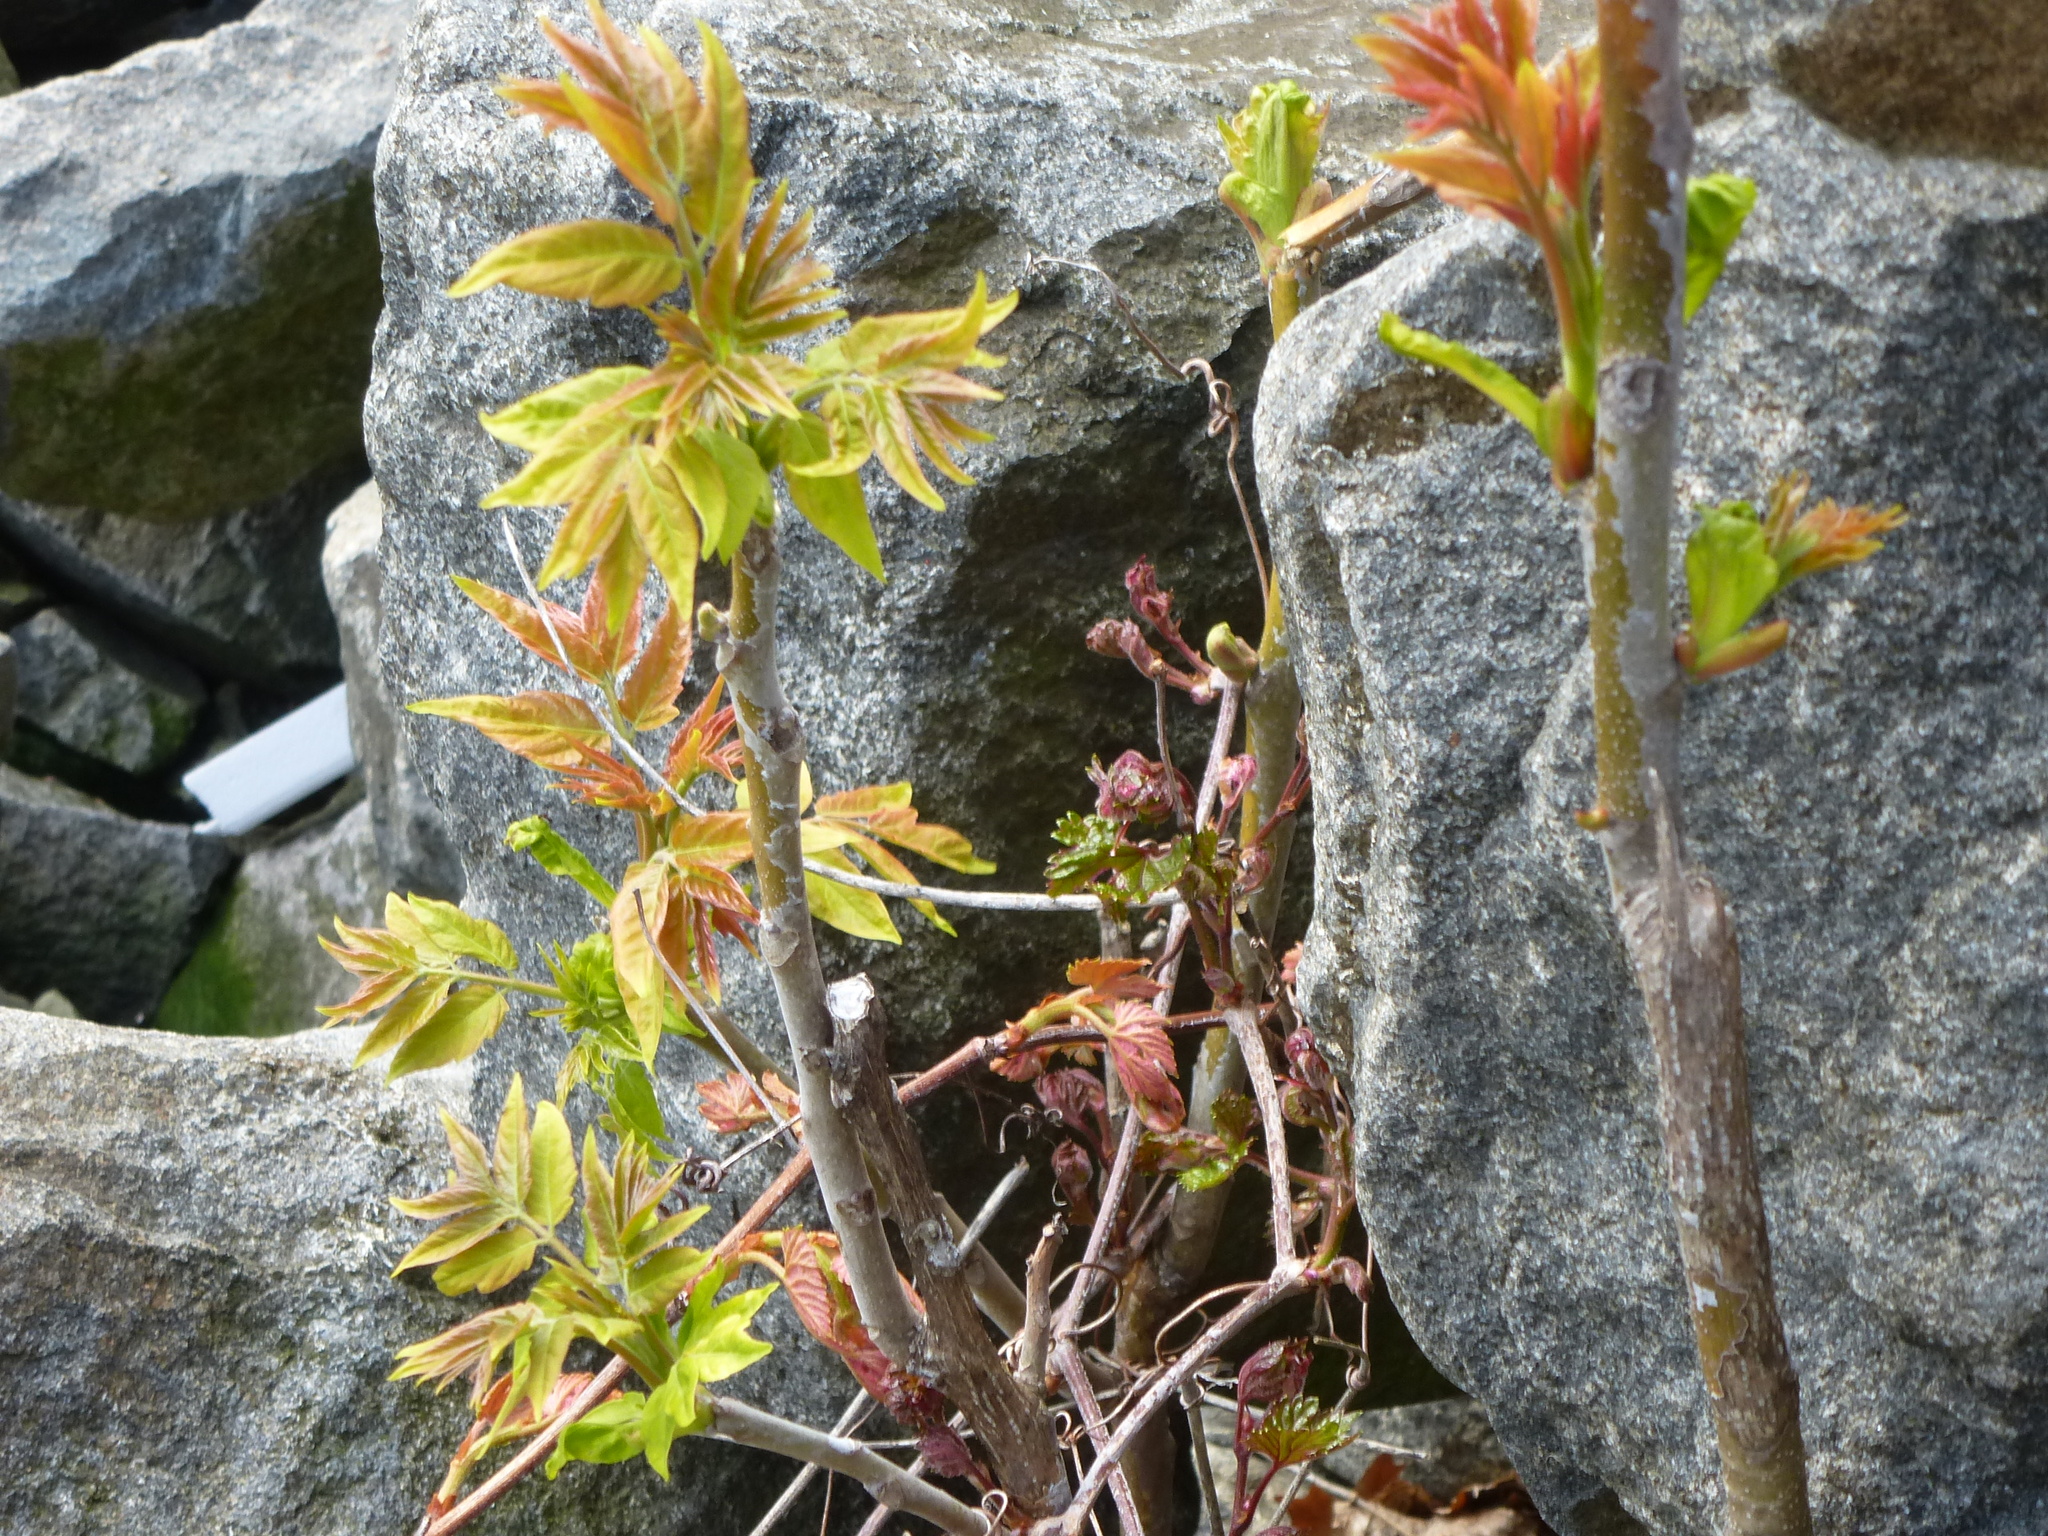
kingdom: Plantae
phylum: Tracheophyta
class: Magnoliopsida
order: Sapindales
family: Simaroubaceae
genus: Ailanthus
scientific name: Ailanthus altissima
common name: Tree-of-heaven
